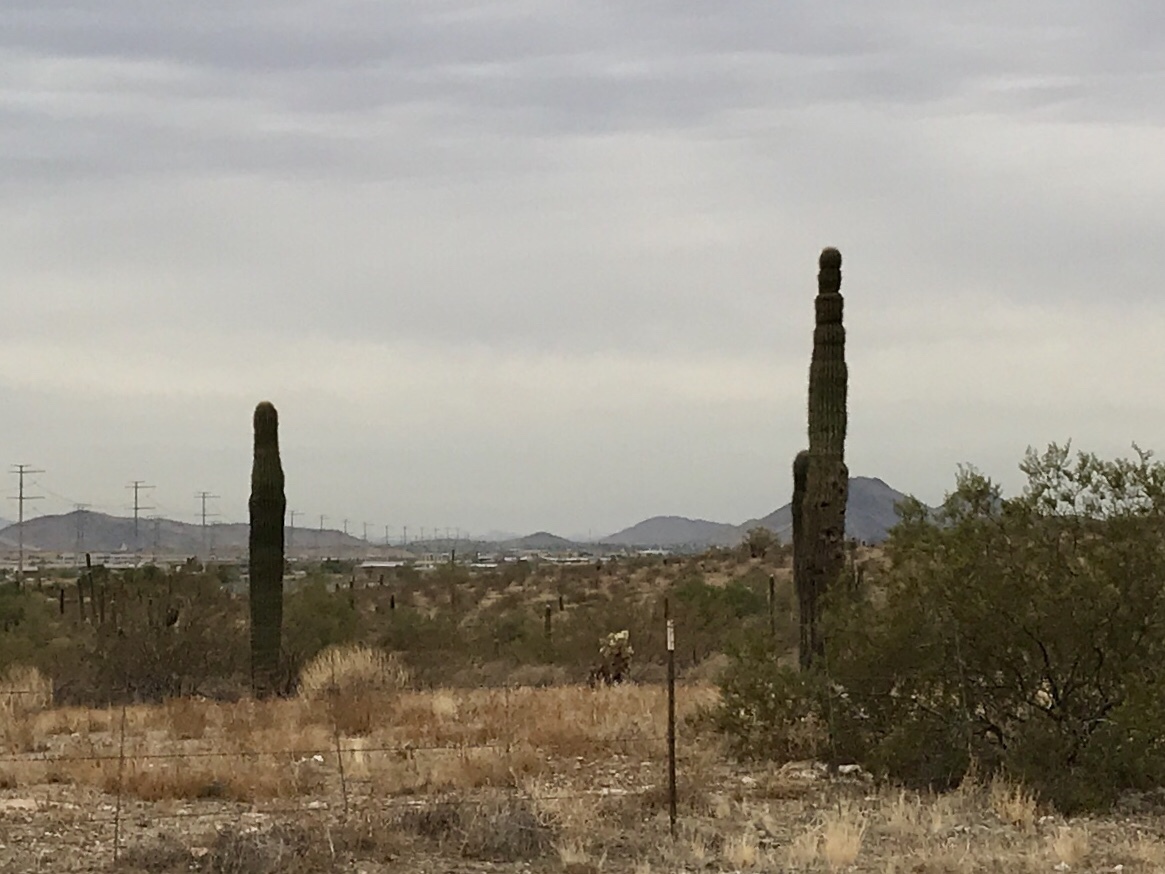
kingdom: Plantae
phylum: Tracheophyta
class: Magnoliopsida
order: Caryophyllales
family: Cactaceae
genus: Carnegiea
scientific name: Carnegiea gigantea
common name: Saguaro
